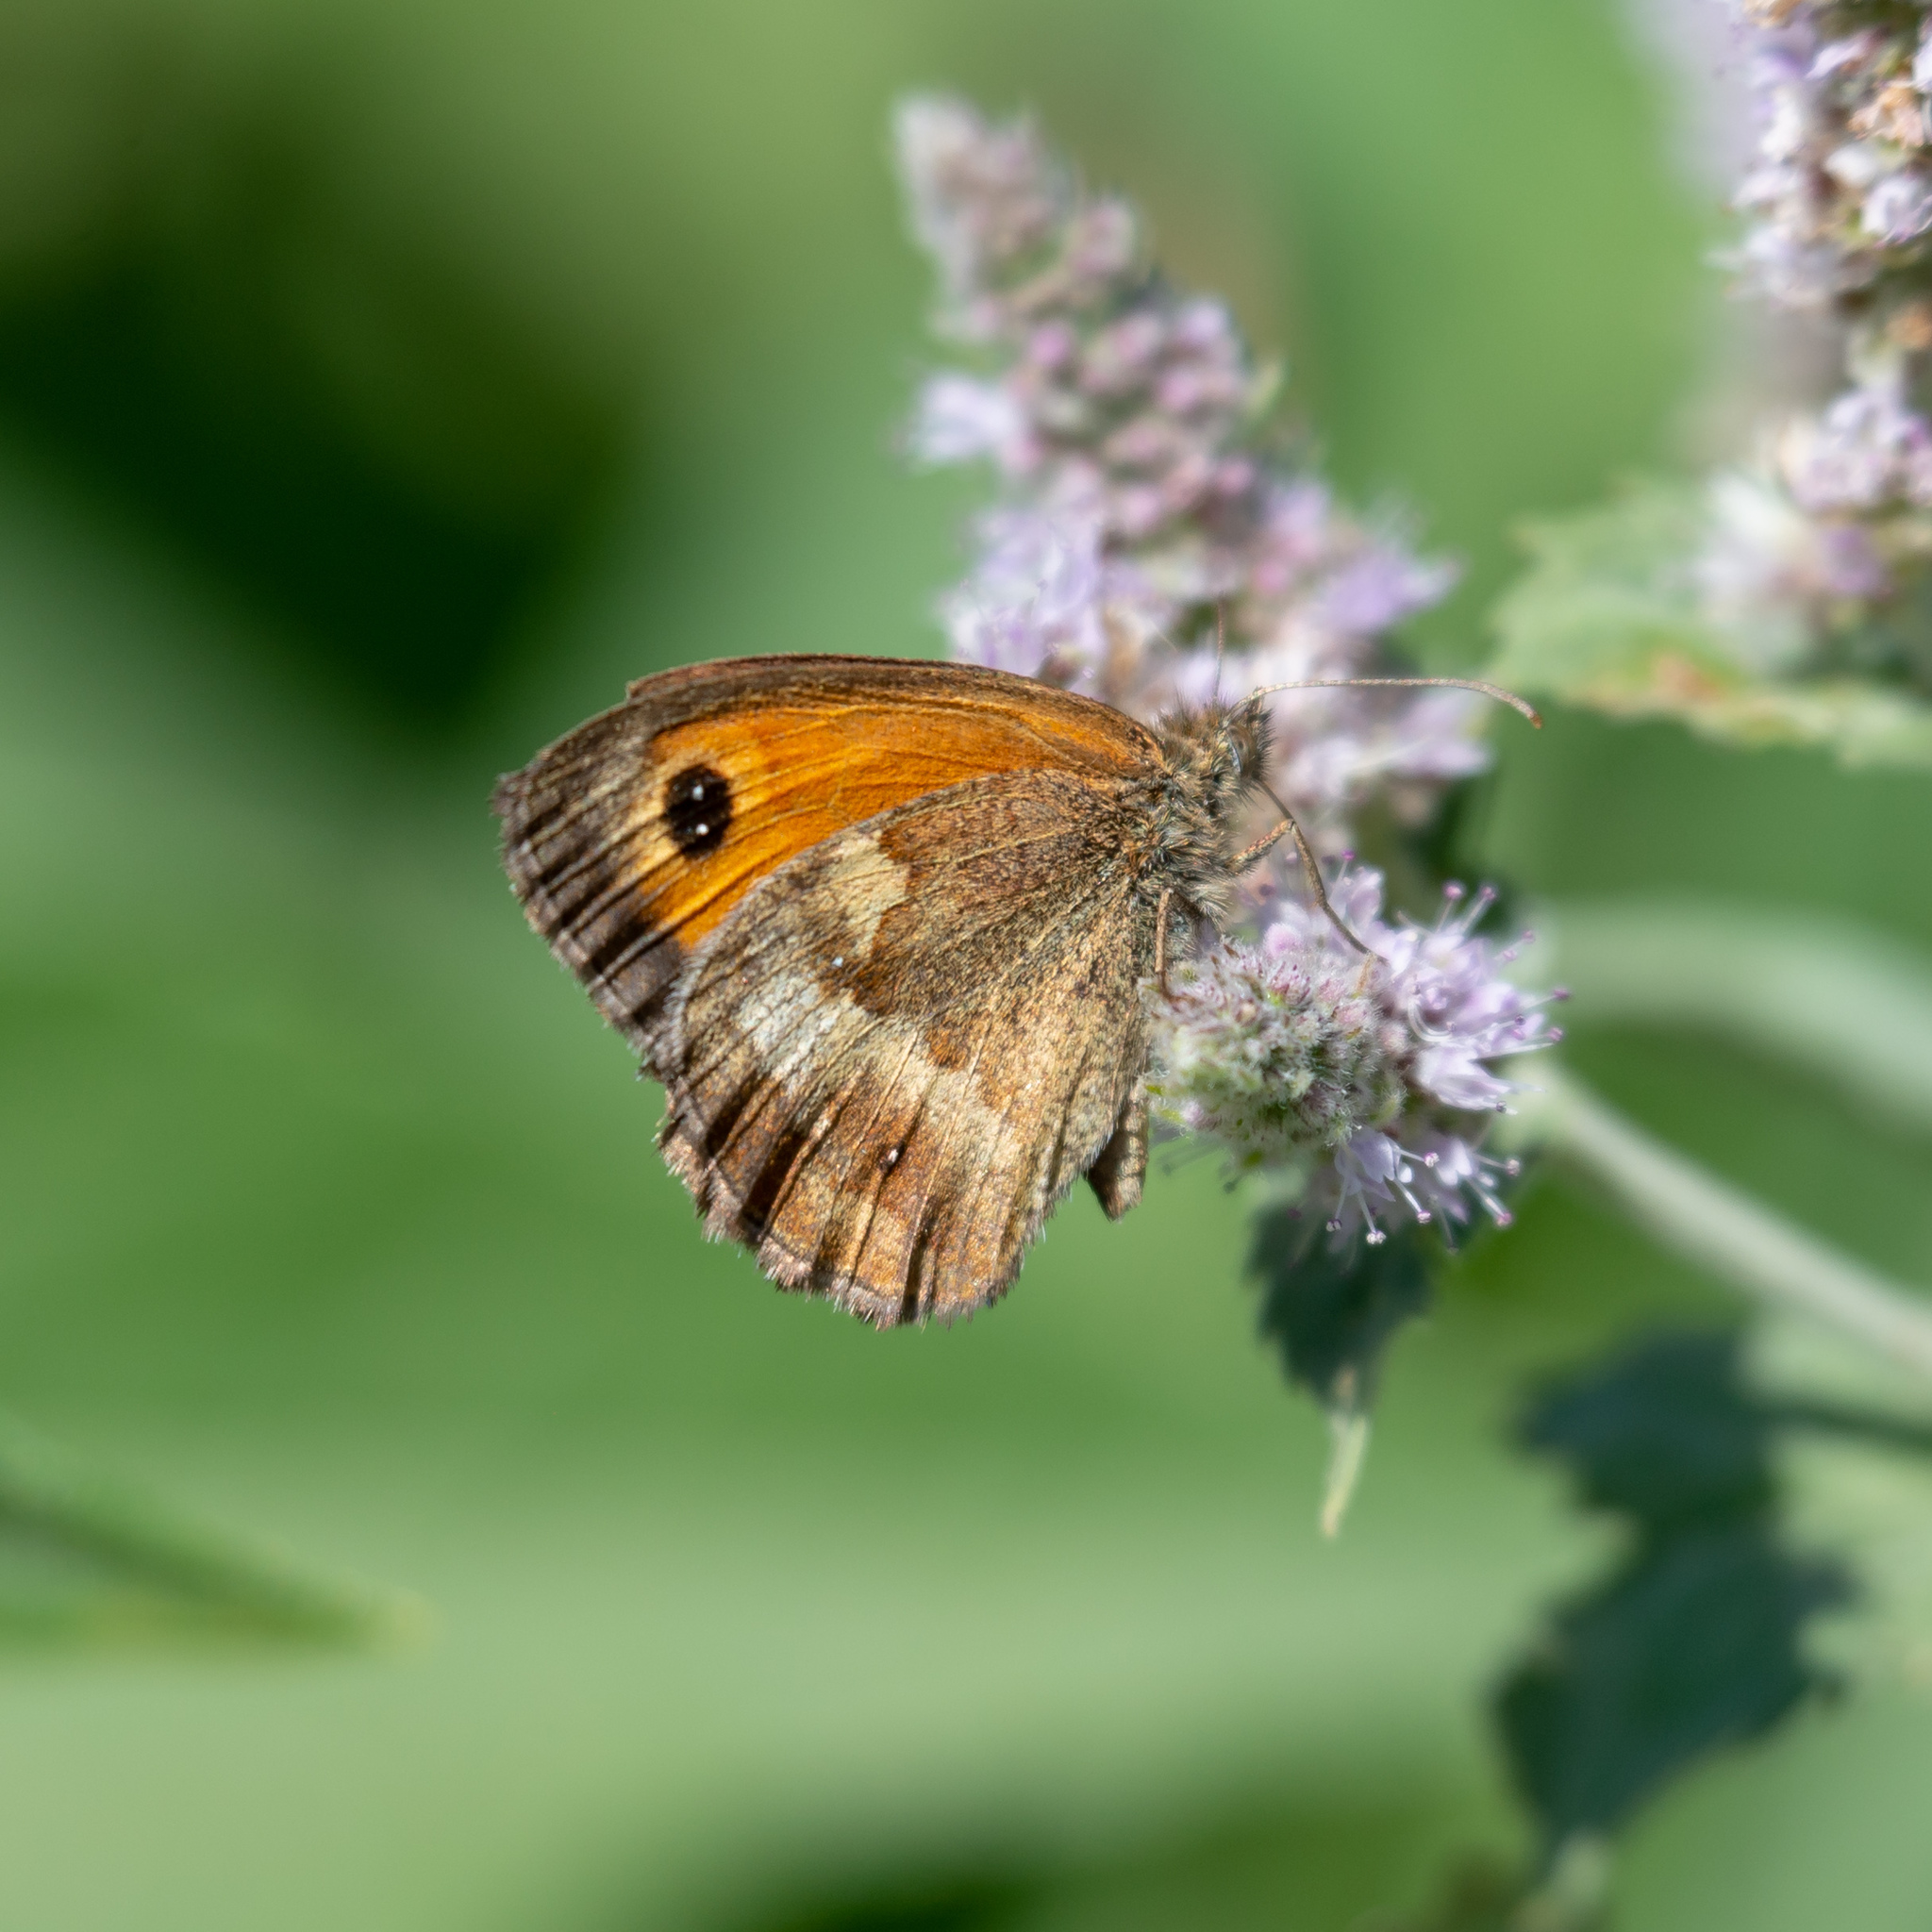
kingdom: Animalia
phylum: Arthropoda
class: Insecta
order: Lepidoptera
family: Nymphalidae
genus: Pyronia
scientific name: Pyronia tithonus
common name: Gatekeeper
